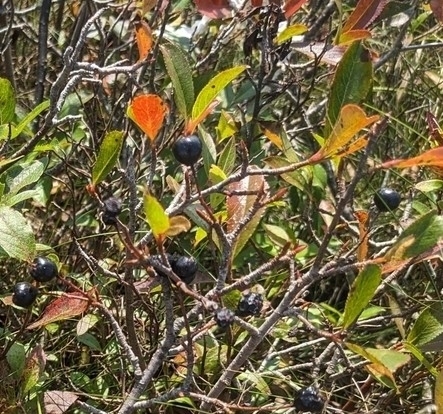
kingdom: Plantae
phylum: Tracheophyta
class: Magnoliopsida
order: Rosales
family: Rosaceae
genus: Aronia
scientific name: Aronia melanocarpa
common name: Black chokeberry
